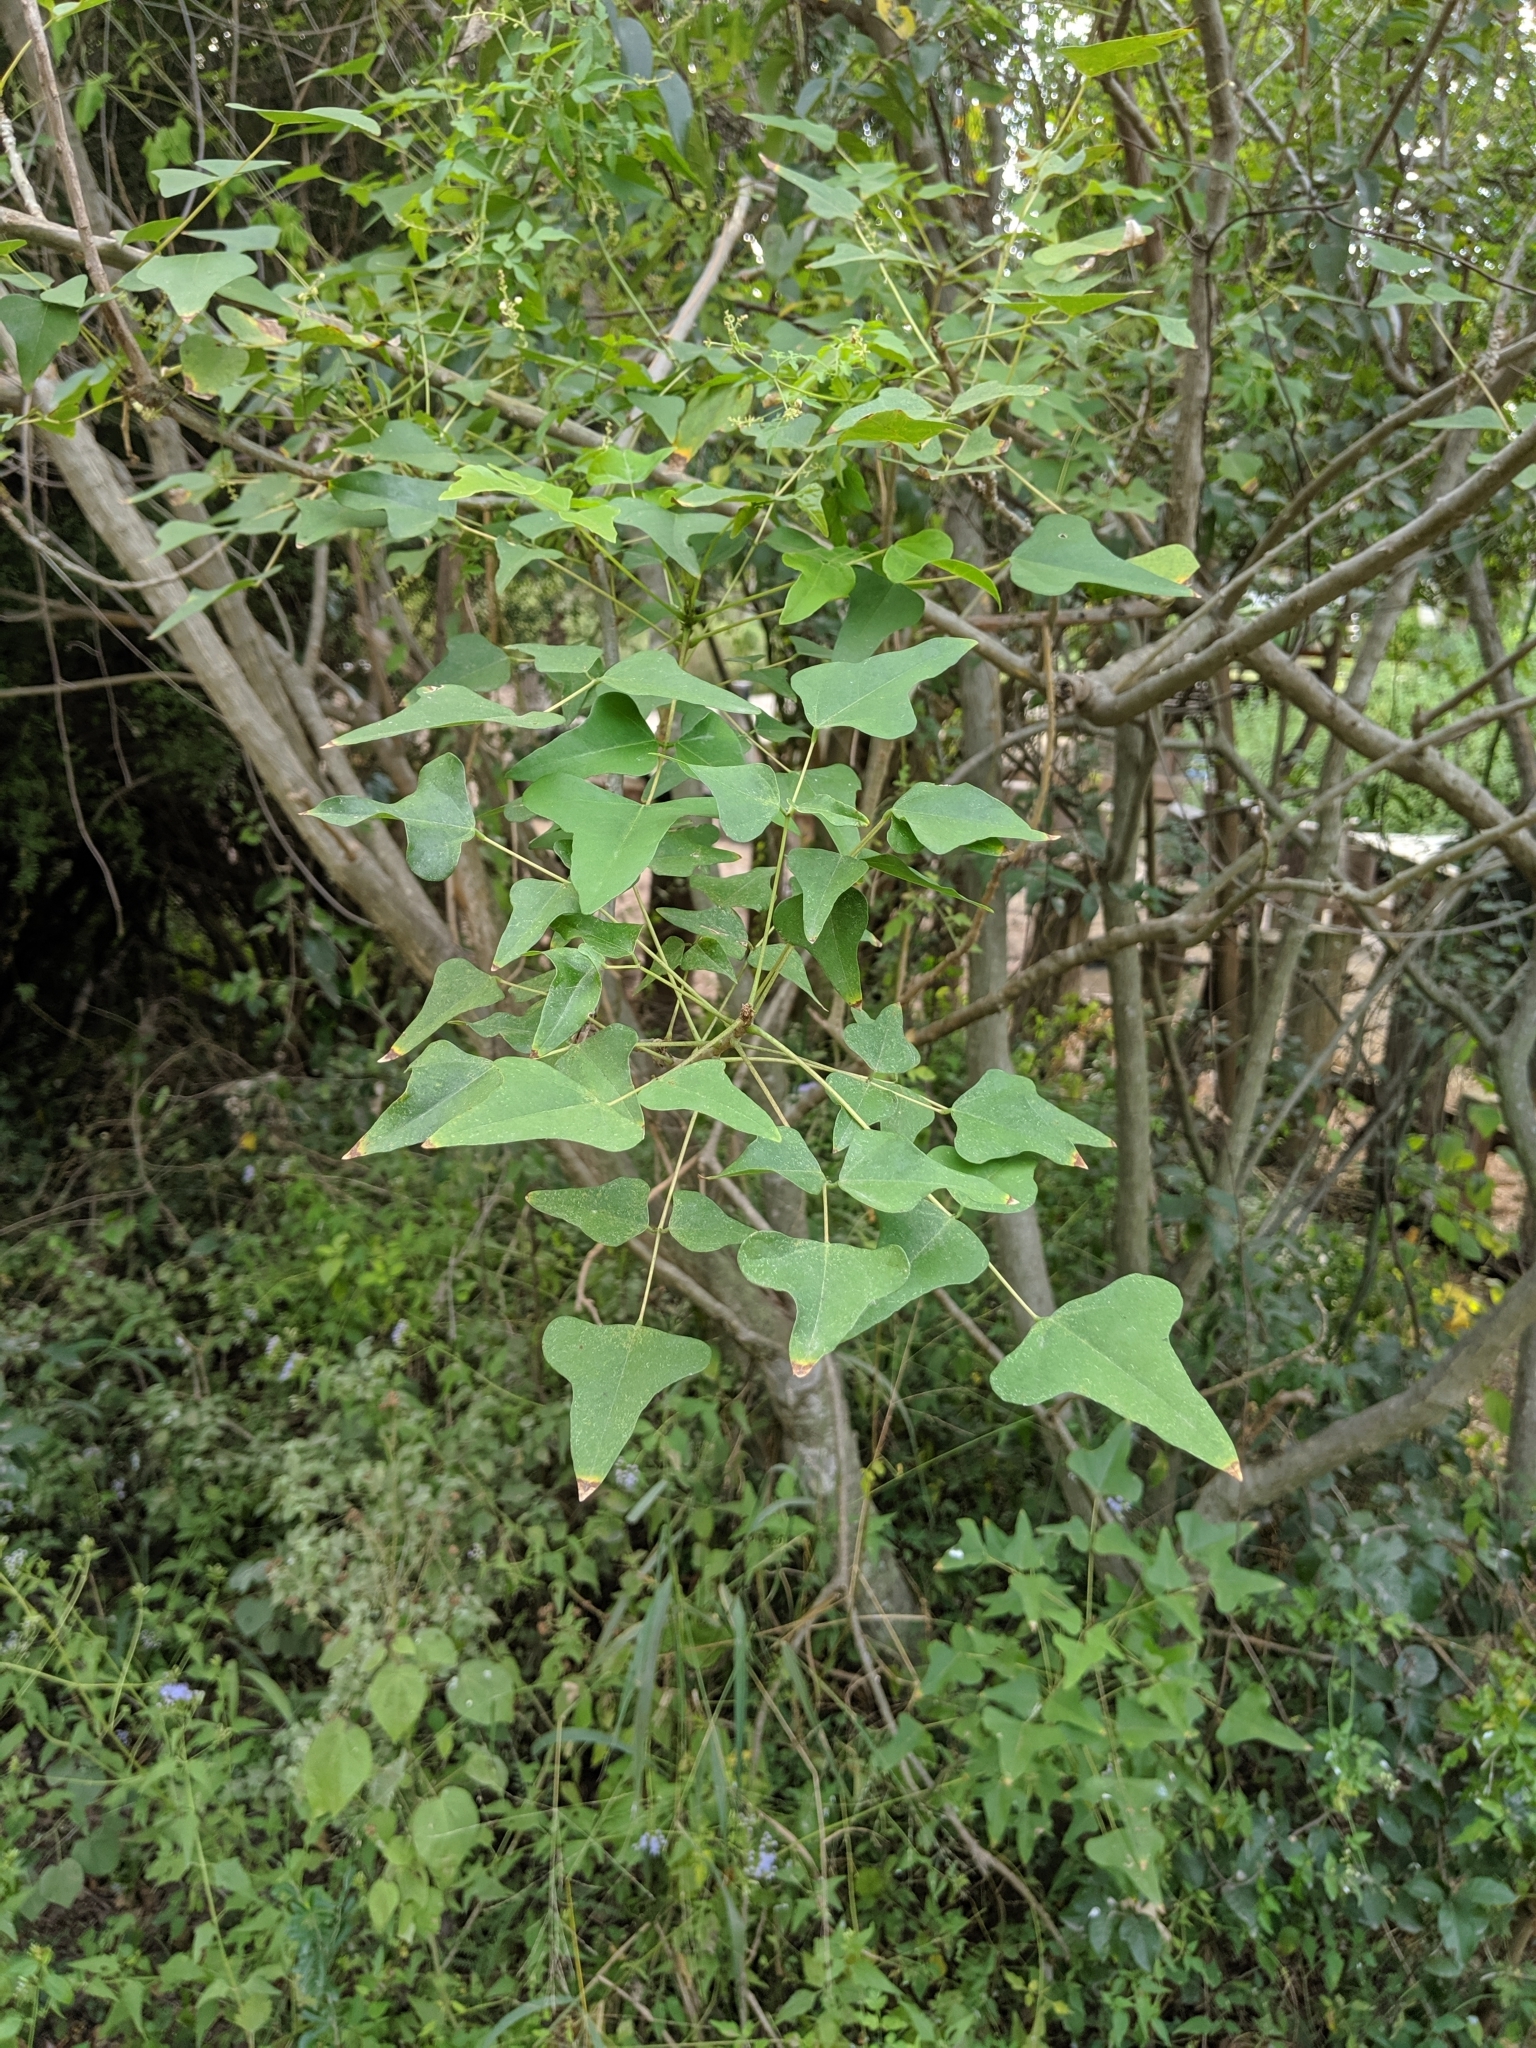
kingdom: Plantae
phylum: Tracheophyta
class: Magnoliopsida
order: Fabales
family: Fabaceae
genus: Erythrina
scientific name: Erythrina herbacea
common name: Coral-bean
